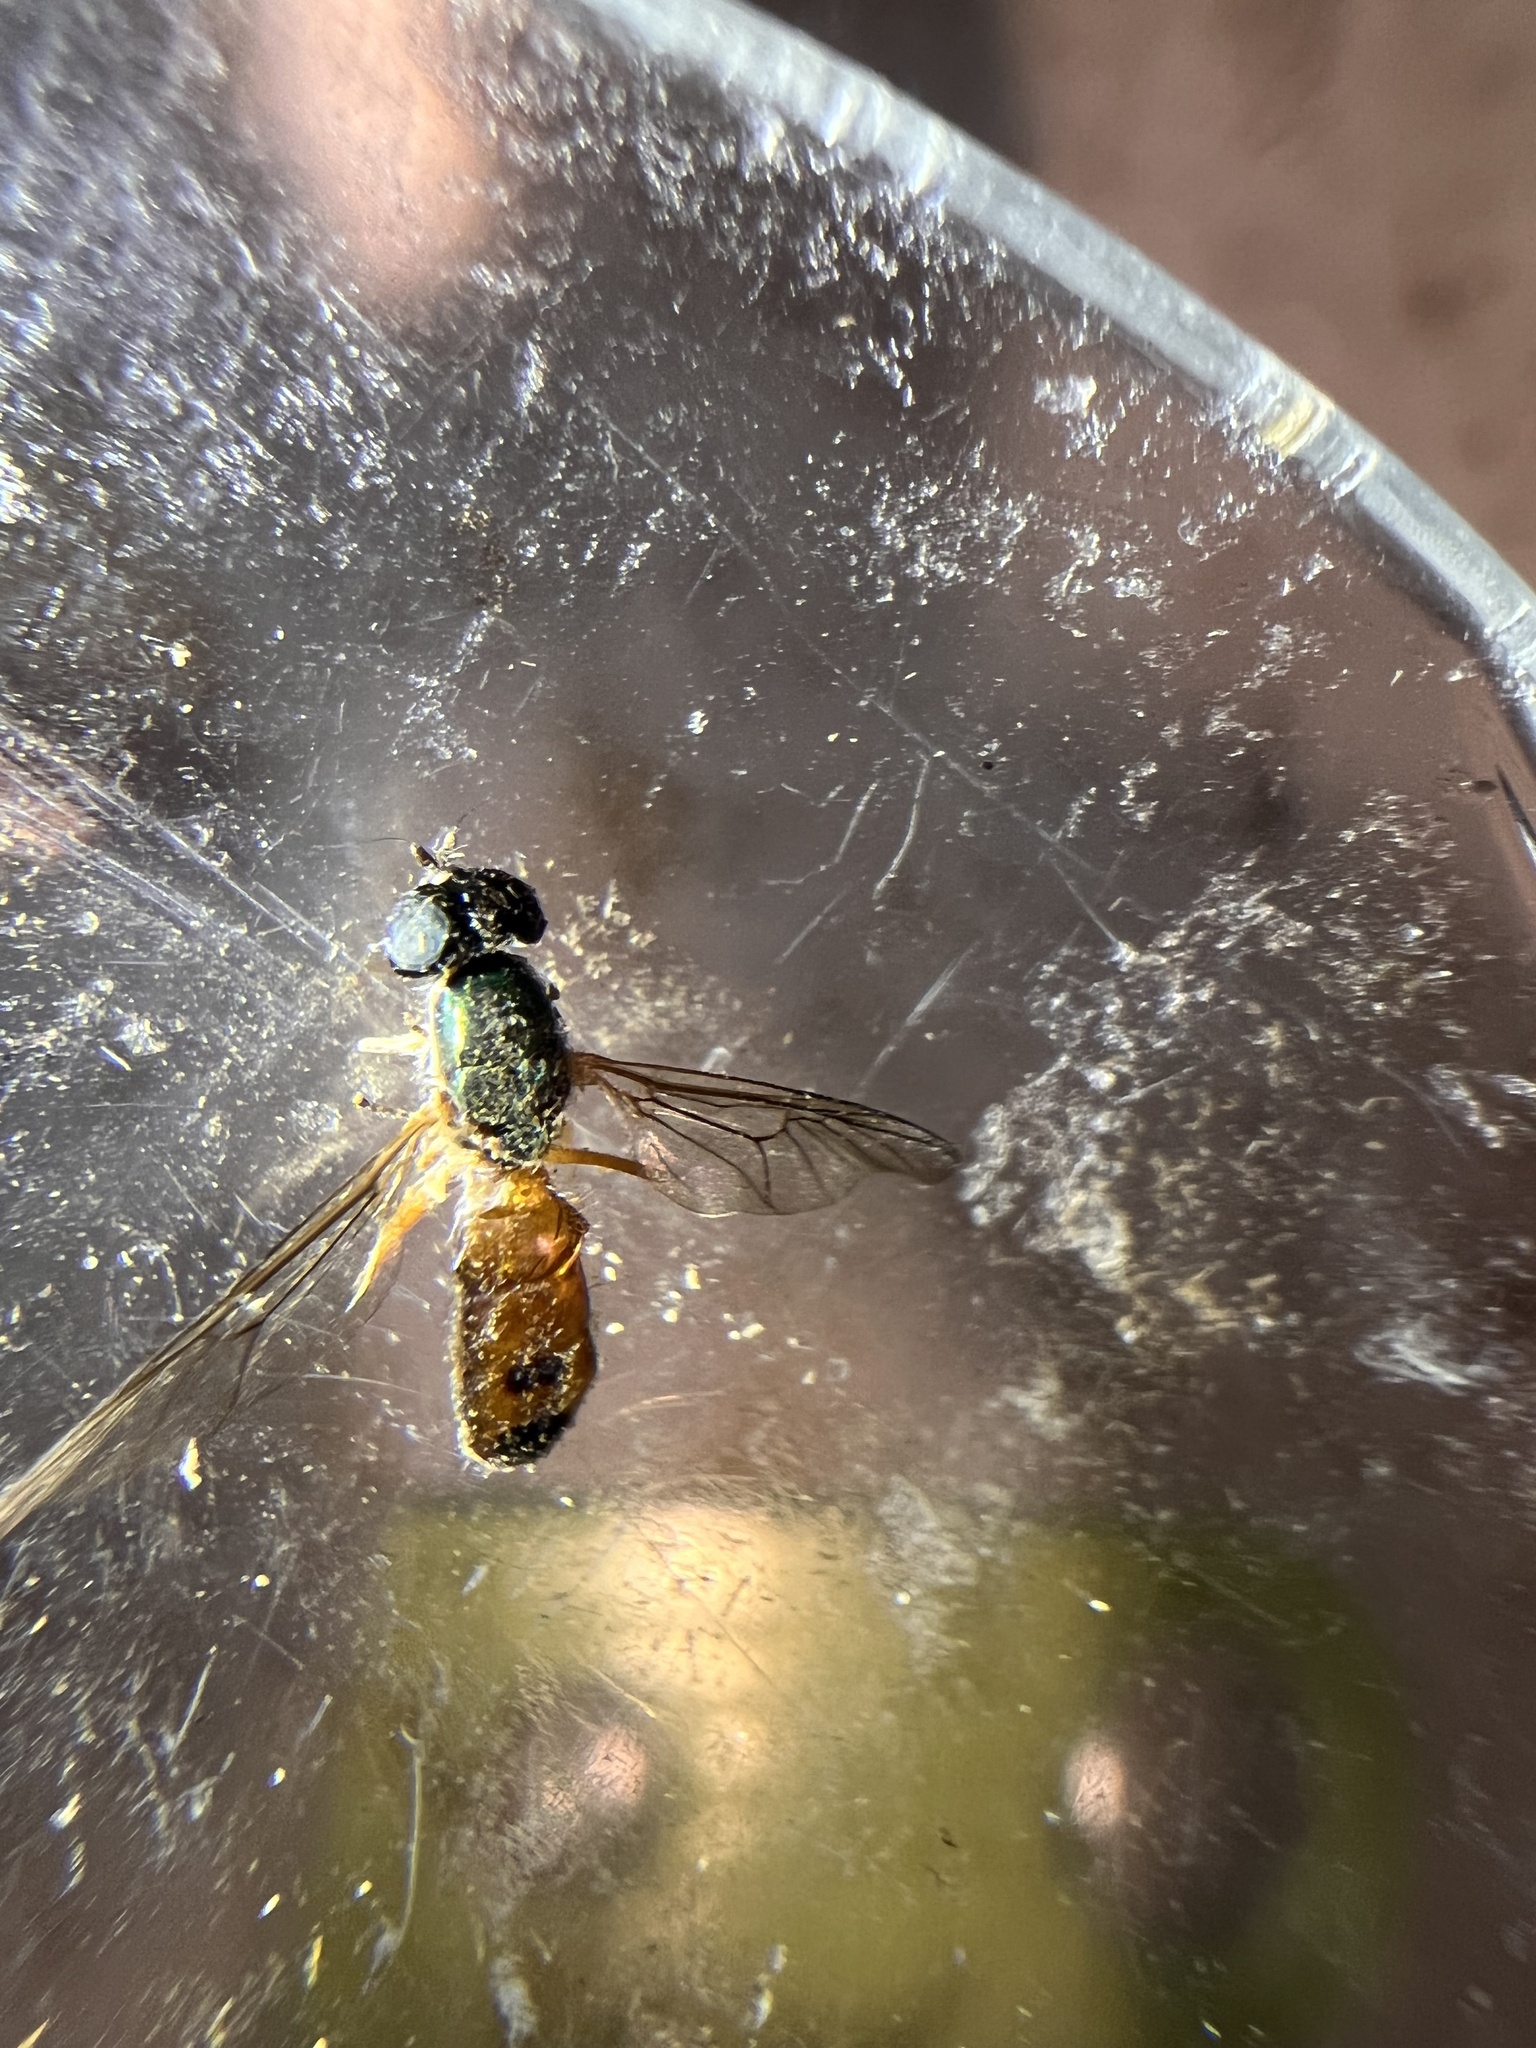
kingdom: Animalia
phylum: Arthropoda
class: Insecta
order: Diptera
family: Stratiomyidae
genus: Sargus
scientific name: Sargus bipunctatus
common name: Twin-spot centurion
